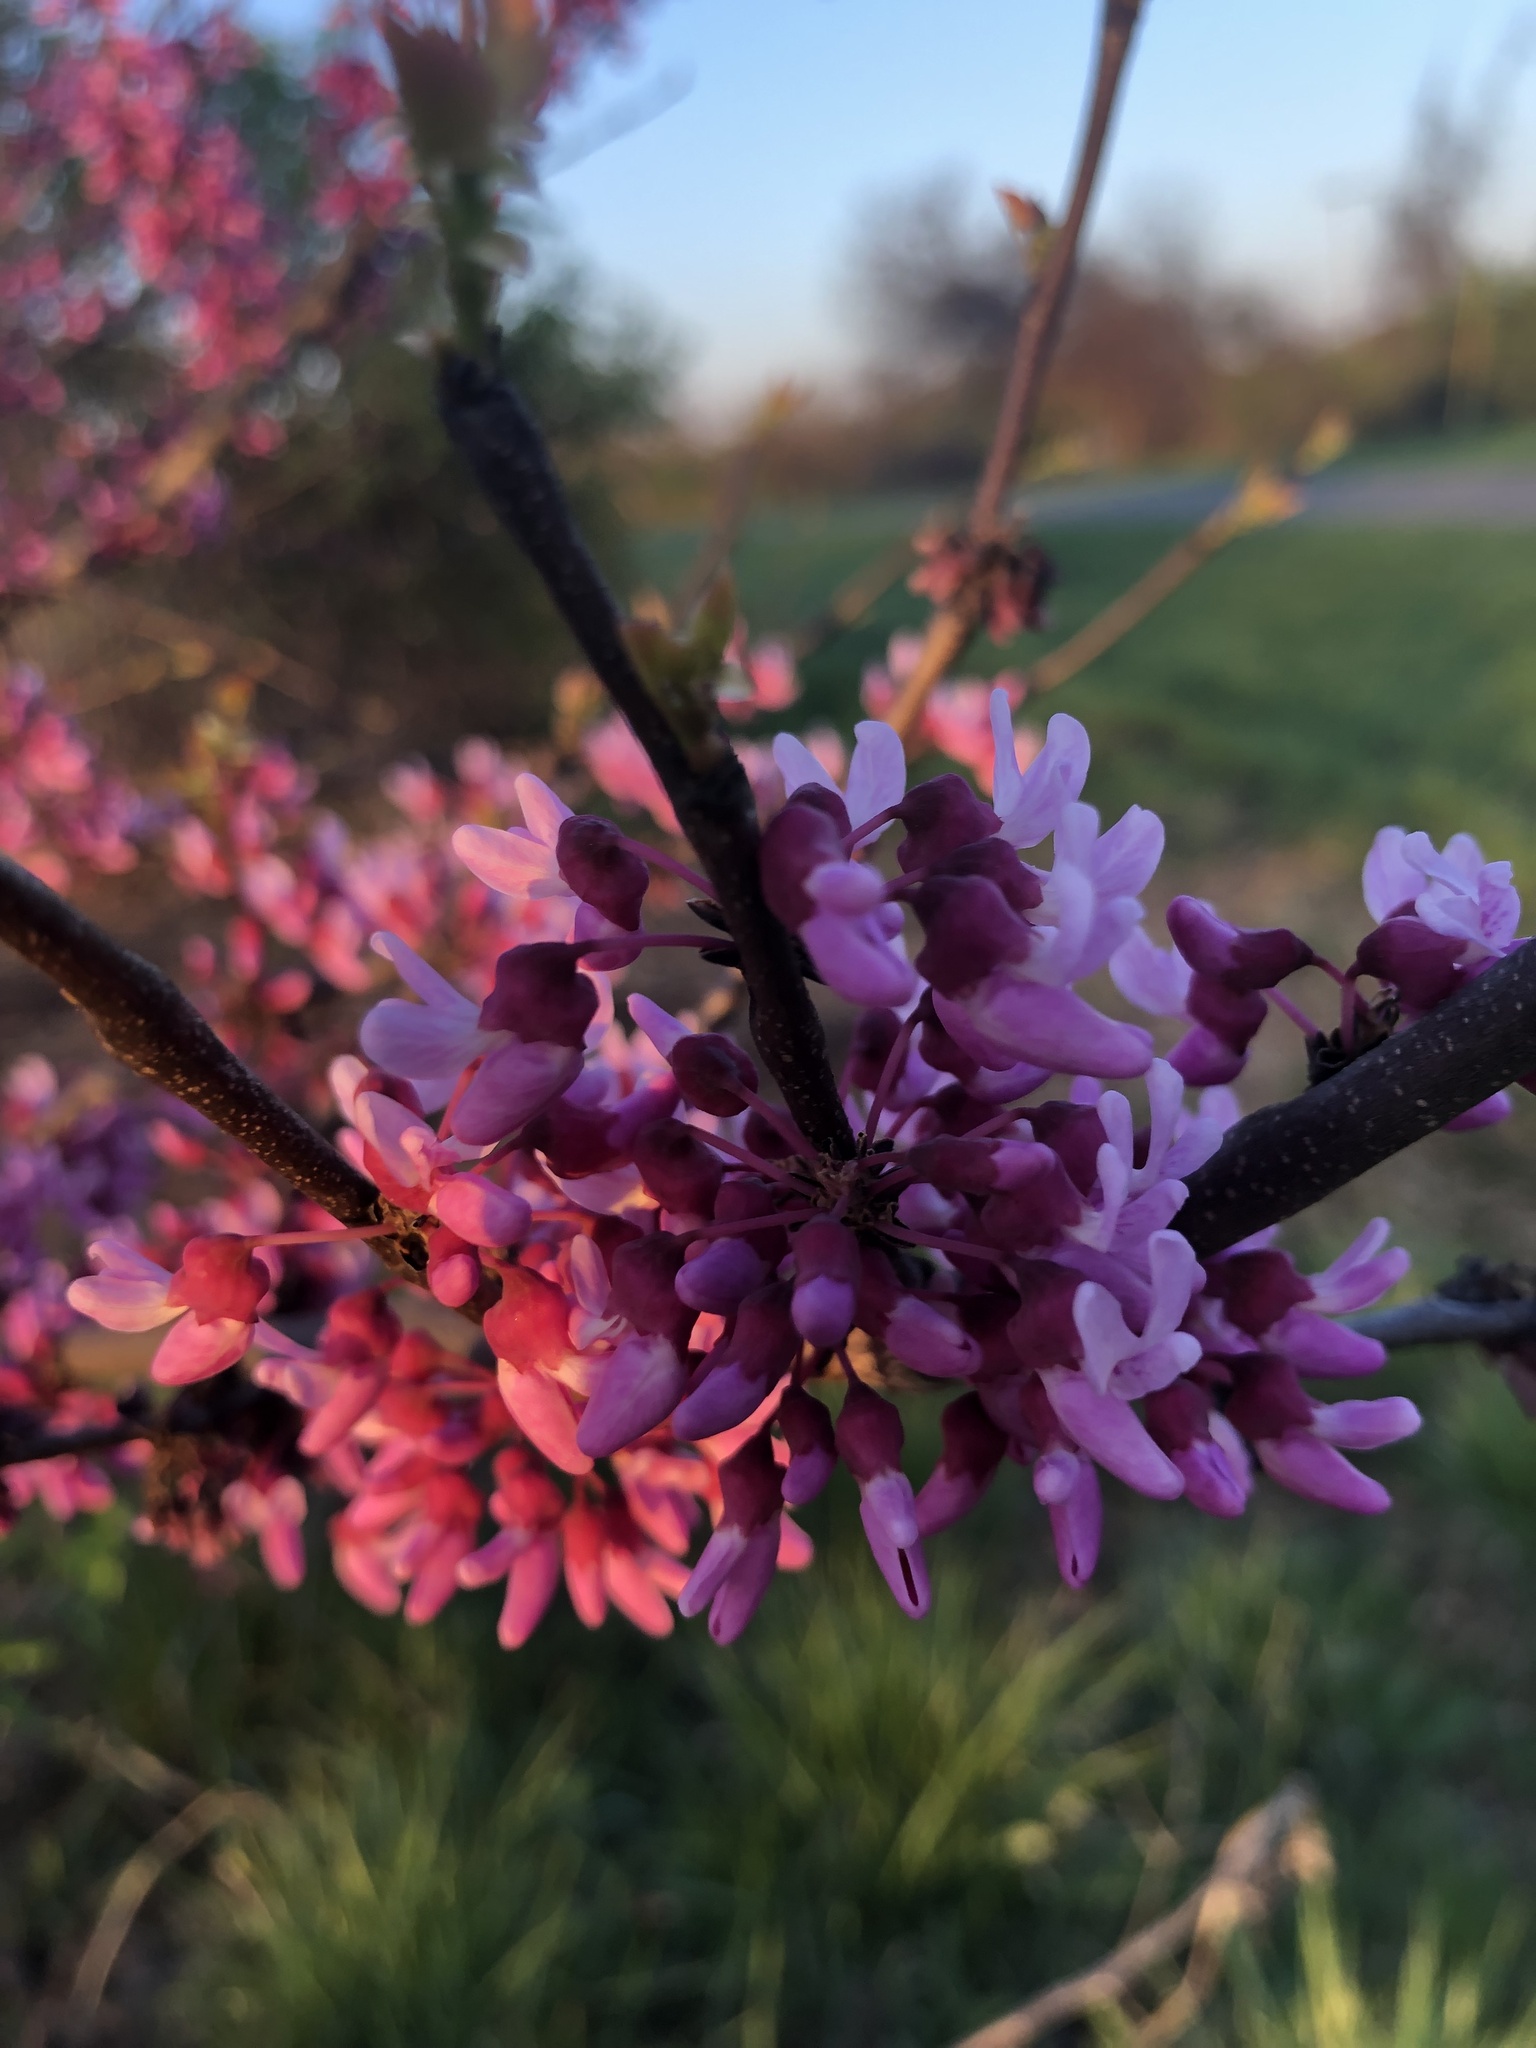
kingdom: Plantae
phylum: Tracheophyta
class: Magnoliopsida
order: Fabales
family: Fabaceae
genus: Cercis
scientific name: Cercis canadensis
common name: Eastern redbud
